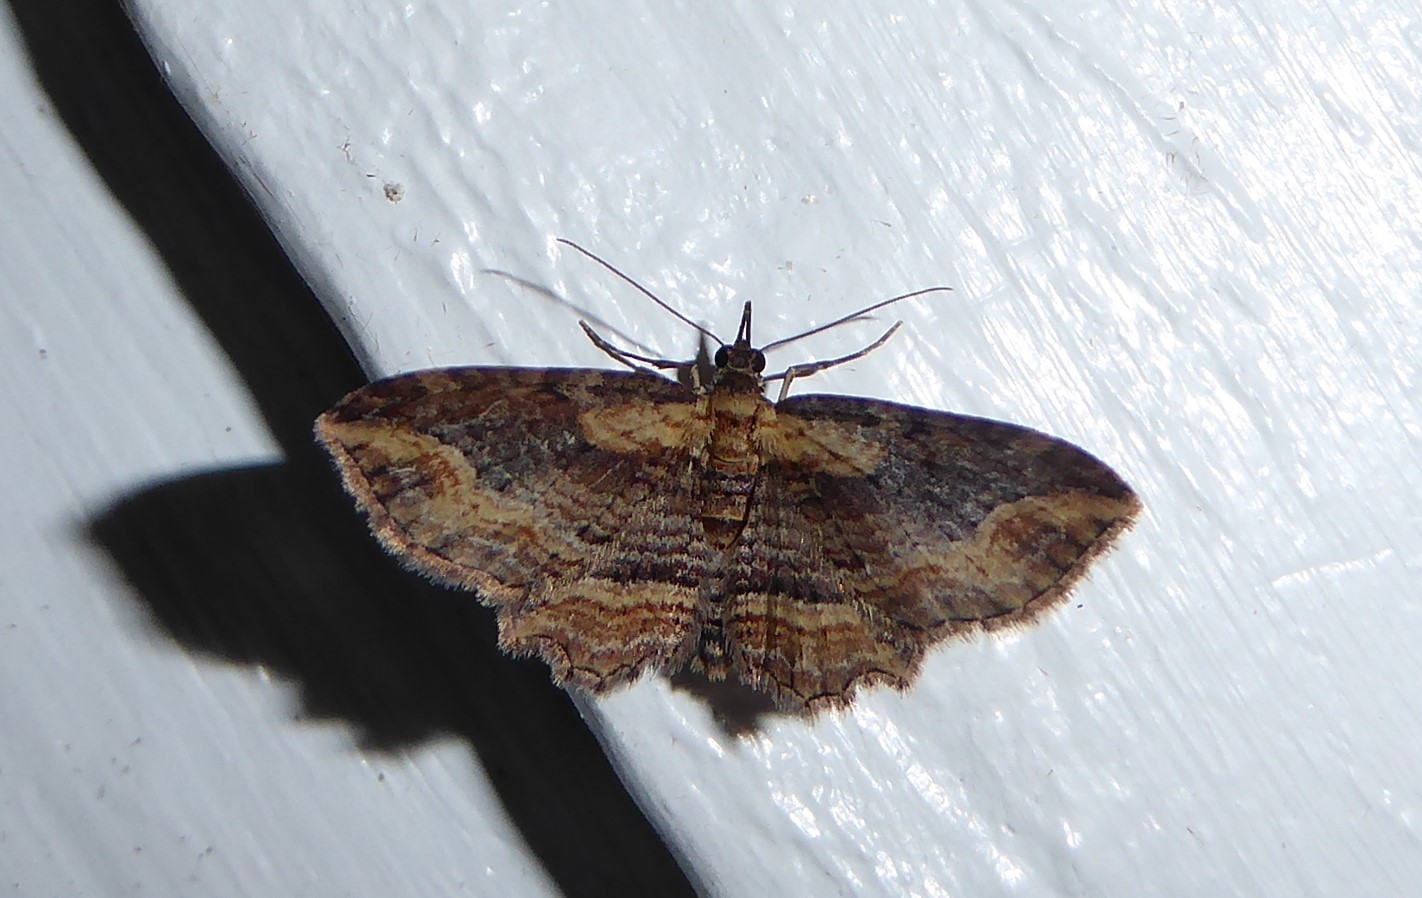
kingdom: Animalia
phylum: Arthropoda
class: Insecta
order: Lepidoptera
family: Geometridae
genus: Chloroclystis
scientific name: Chloroclystis filata
